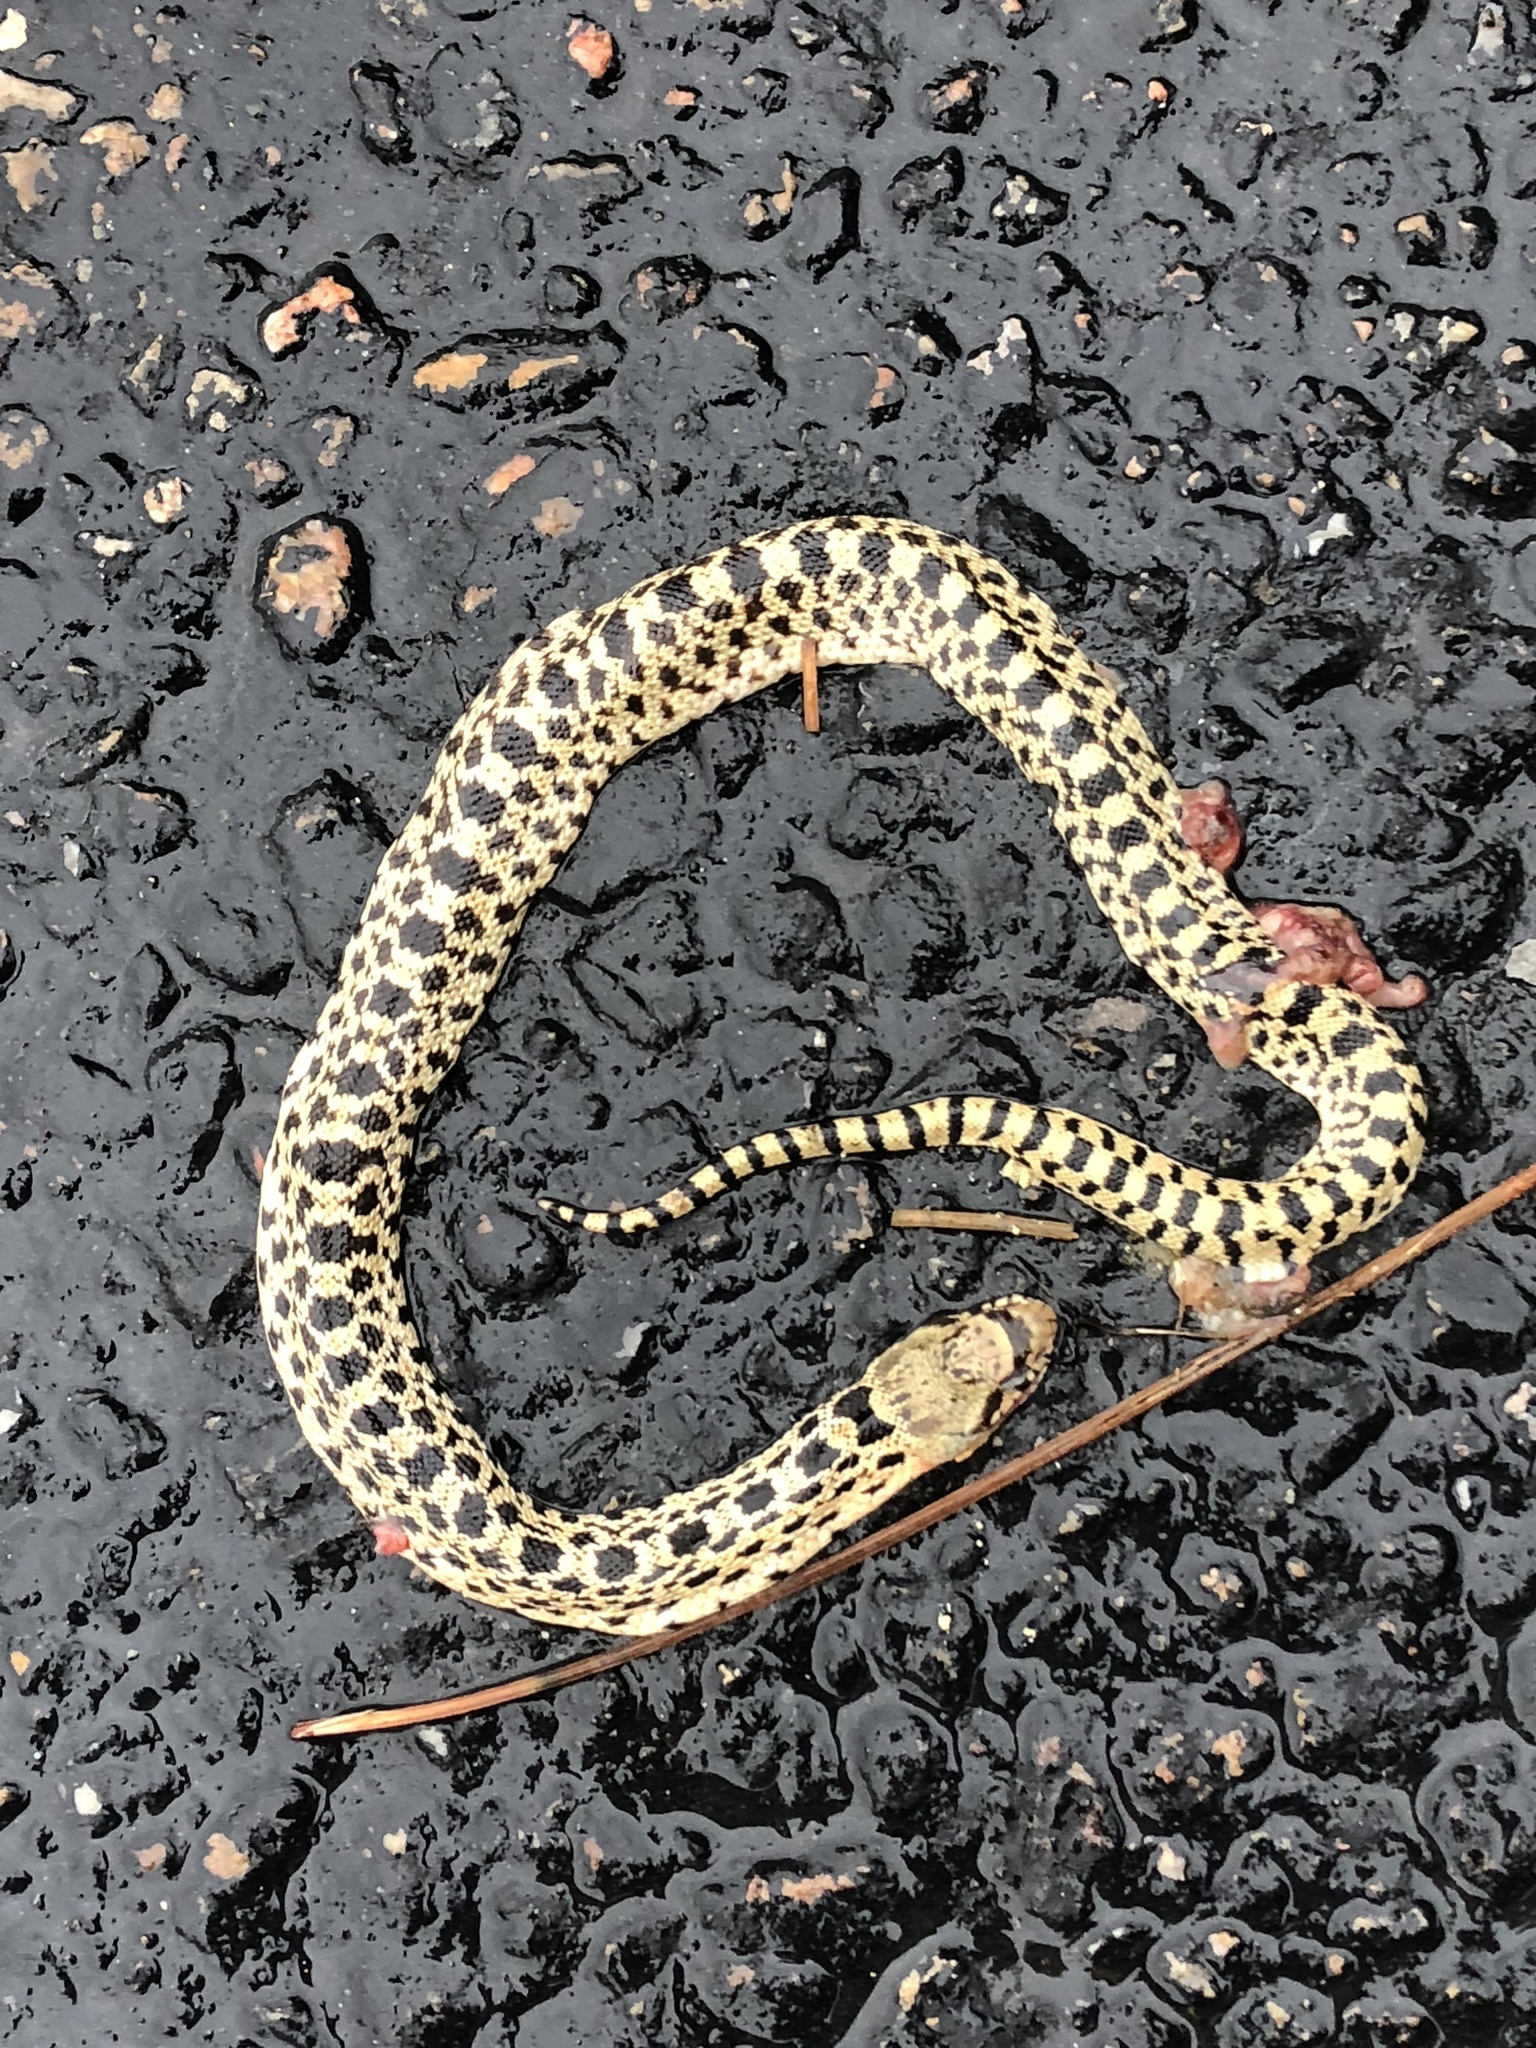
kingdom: Animalia
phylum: Chordata
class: Squamata
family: Colubridae
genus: Pituophis
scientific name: Pituophis catenifer
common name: Gopher snake
